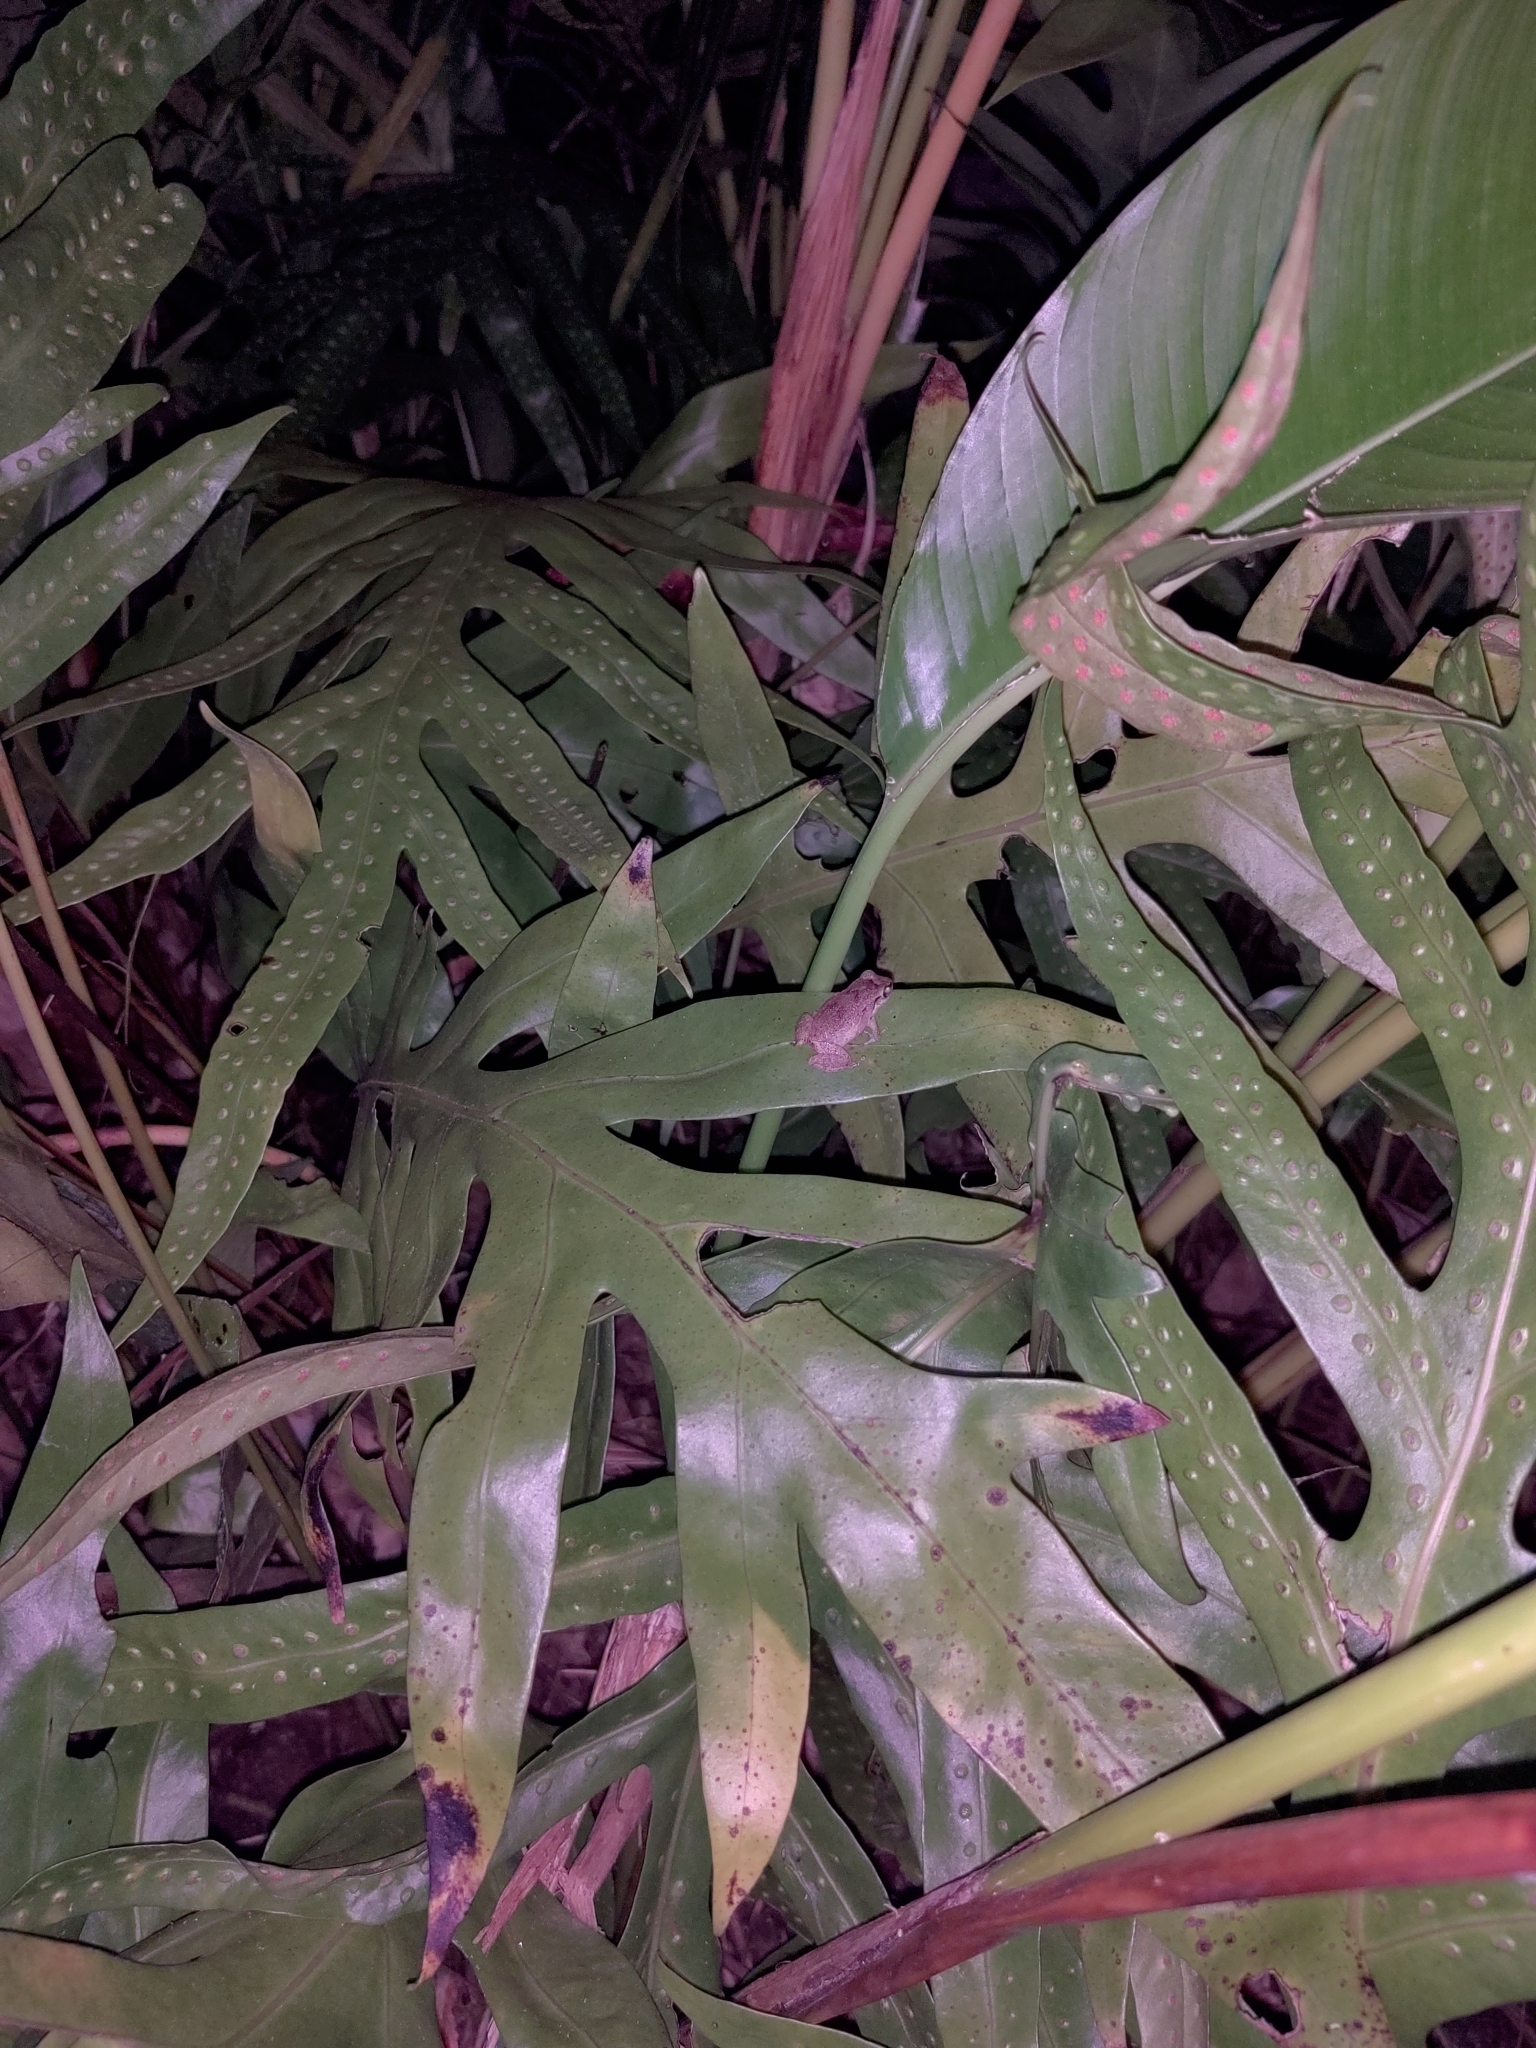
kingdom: Animalia
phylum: Chordata
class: Amphibia
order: Anura
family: Eleutherodactylidae
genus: Eleutherodactylus
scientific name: Eleutherodactylus johnstonei
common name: Johnstone's robber frog
